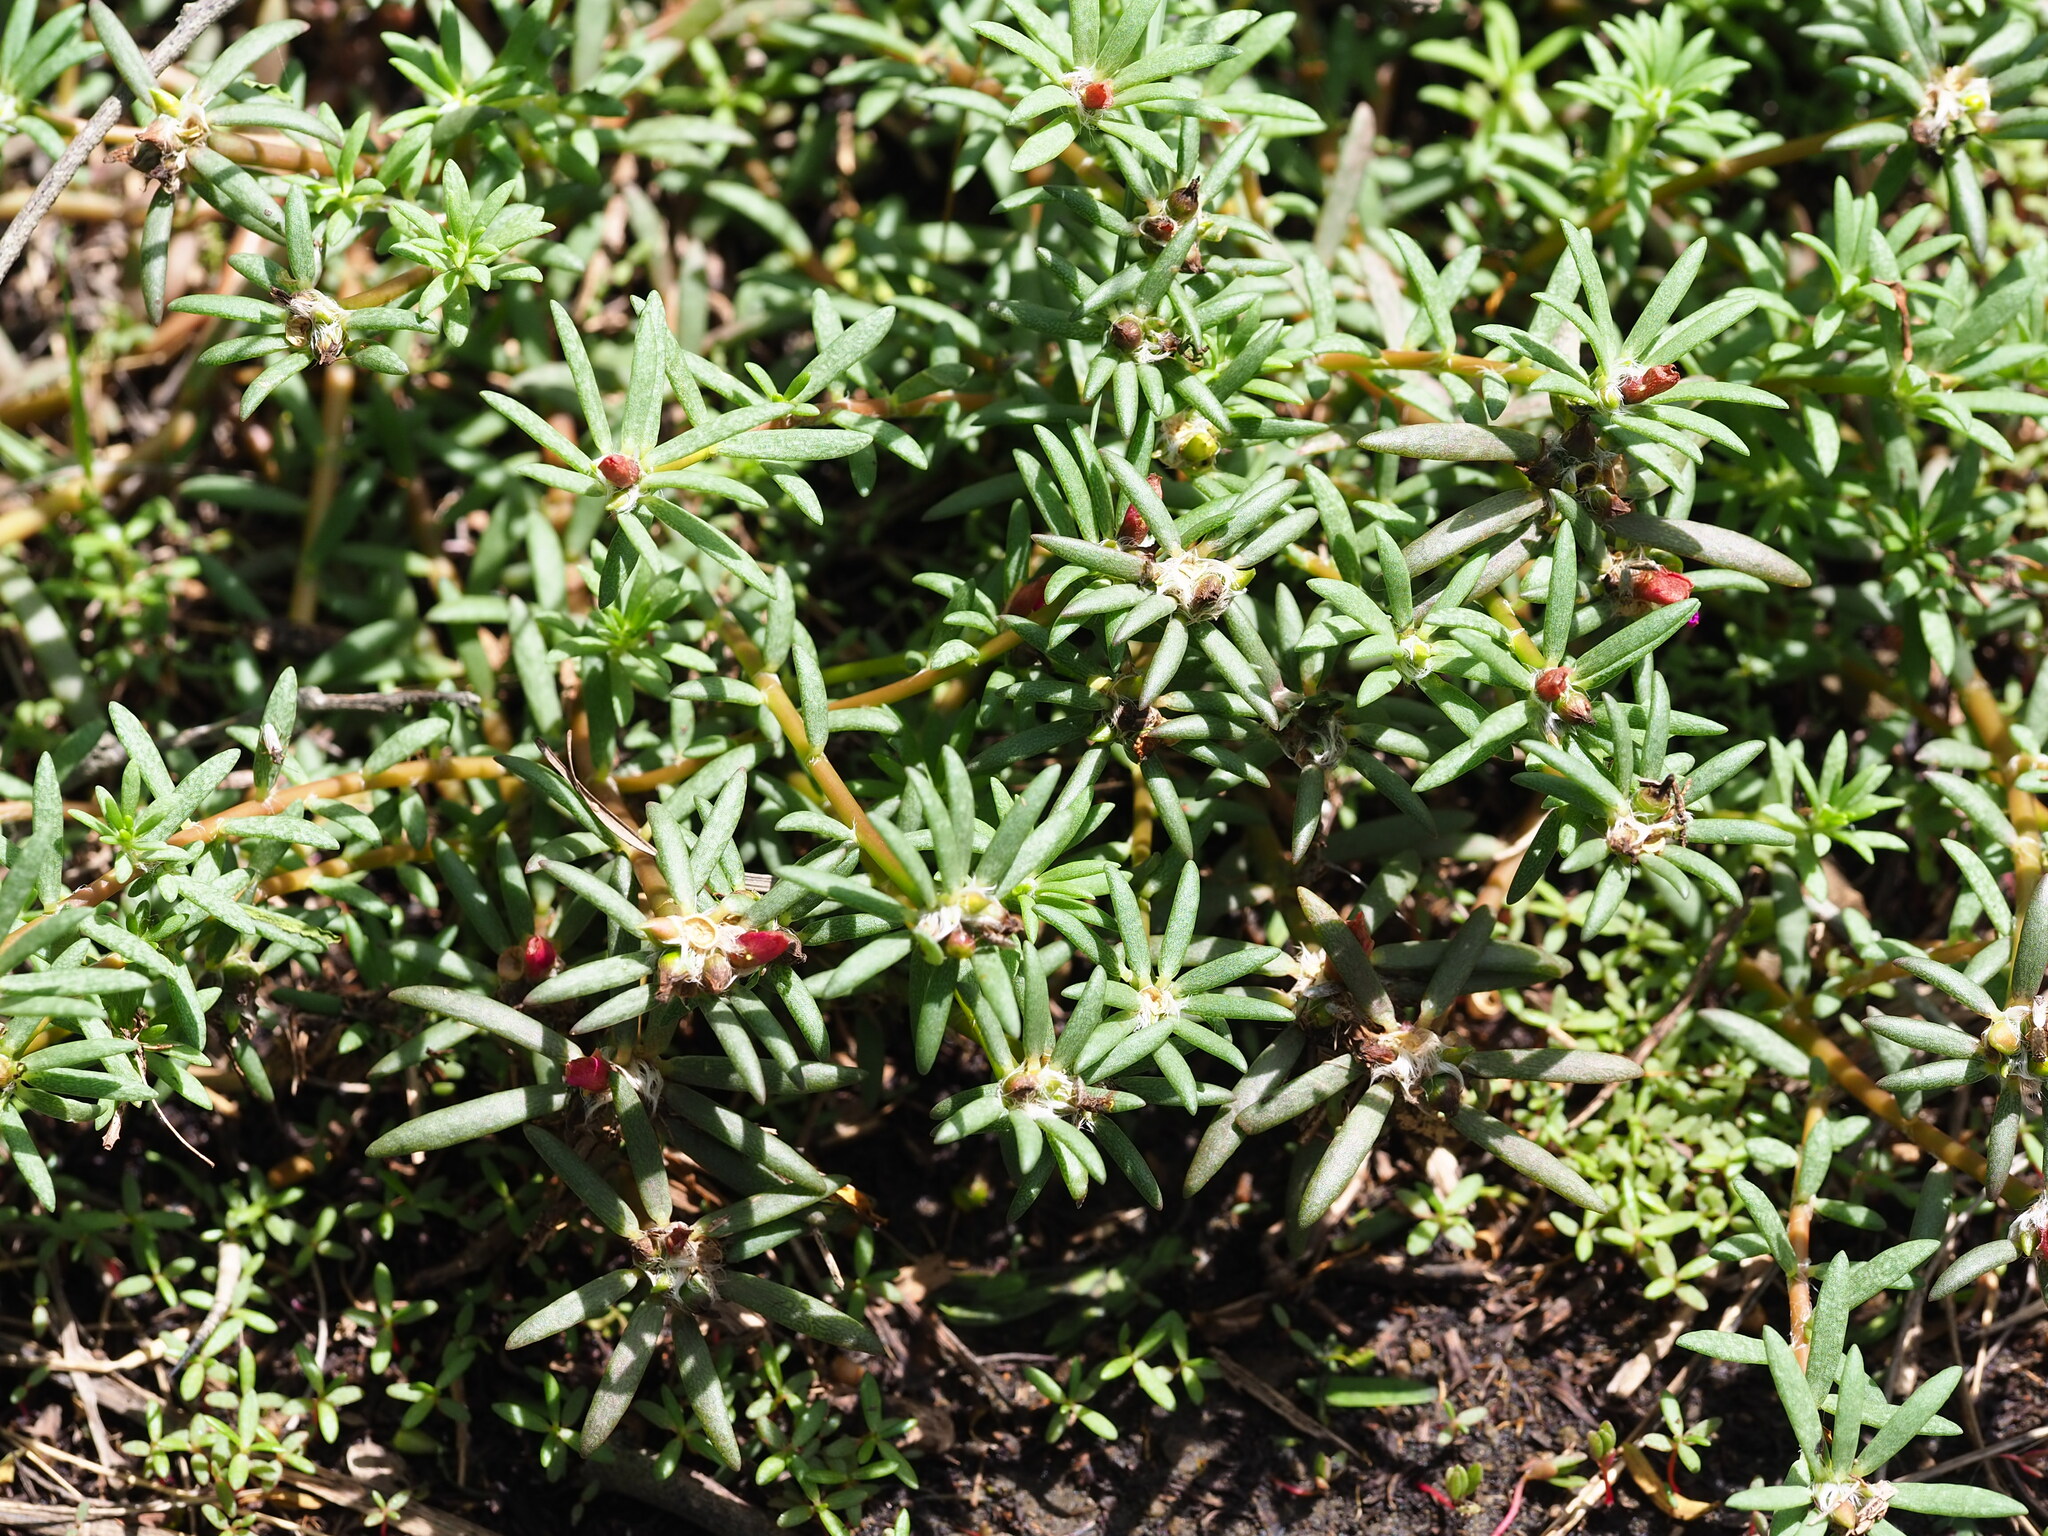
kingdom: Plantae
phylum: Tracheophyta
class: Magnoliopsida
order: Caryophyllales
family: Portulacaceae
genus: Portulaca
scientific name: Portulaca pilosa
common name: Kiss me quick
